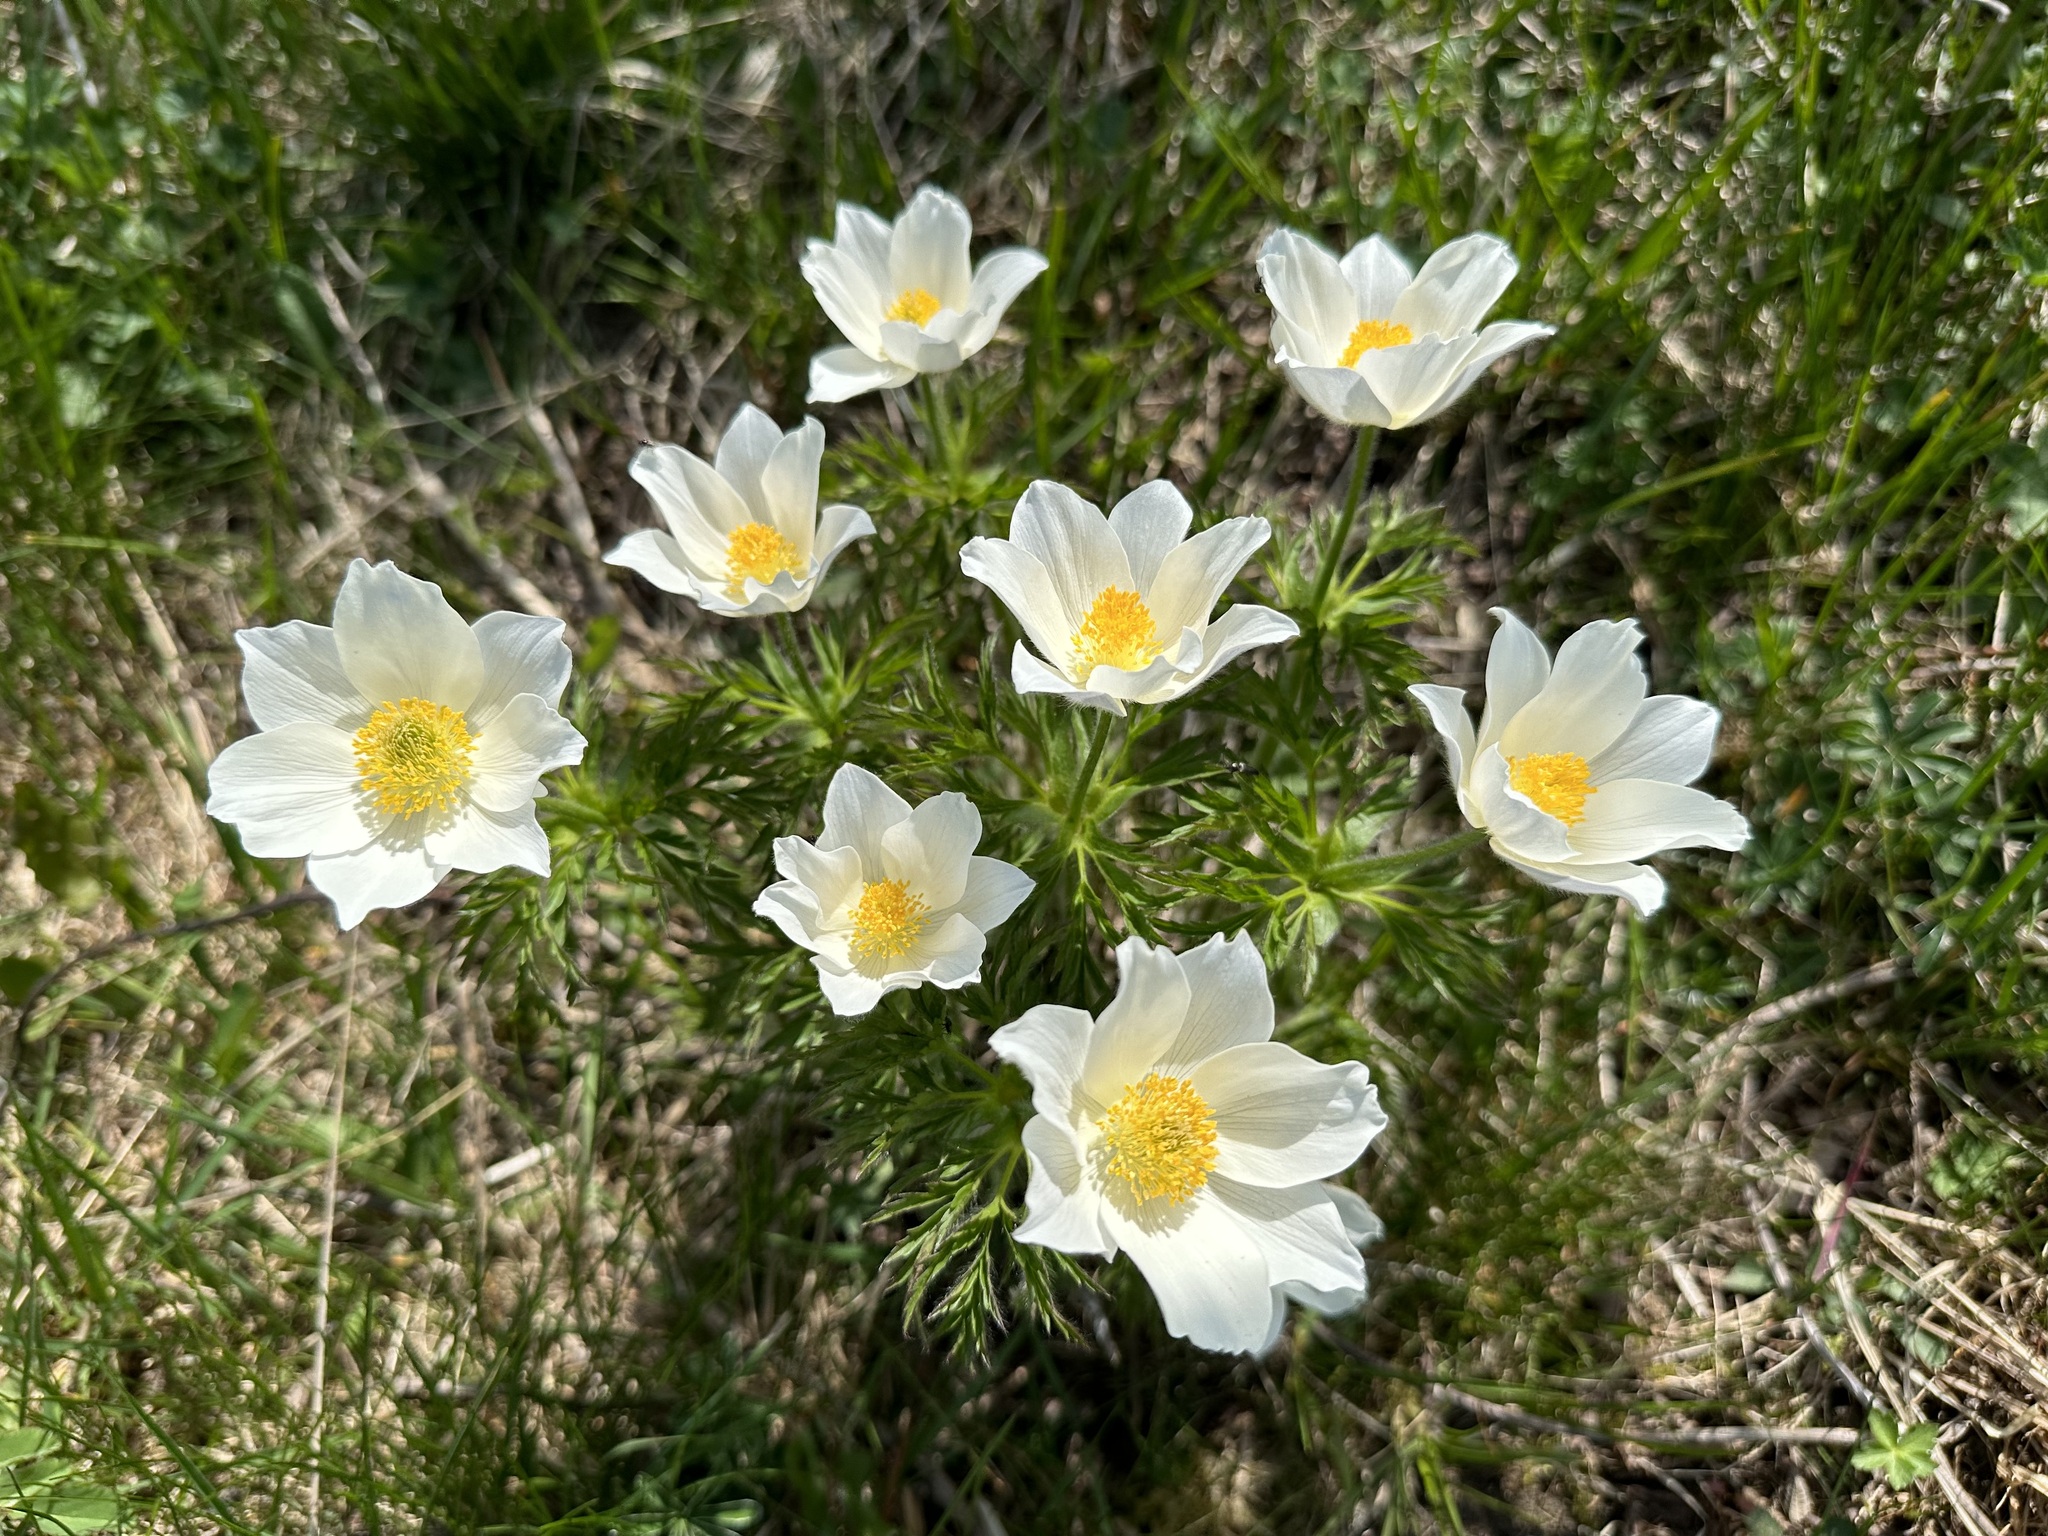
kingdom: Plantae
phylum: Tracheophyta
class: Magnoliopsida
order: Ranunculales
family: Ranunculaceae
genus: Pulsatilla
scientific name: Pulsatilla alpina
